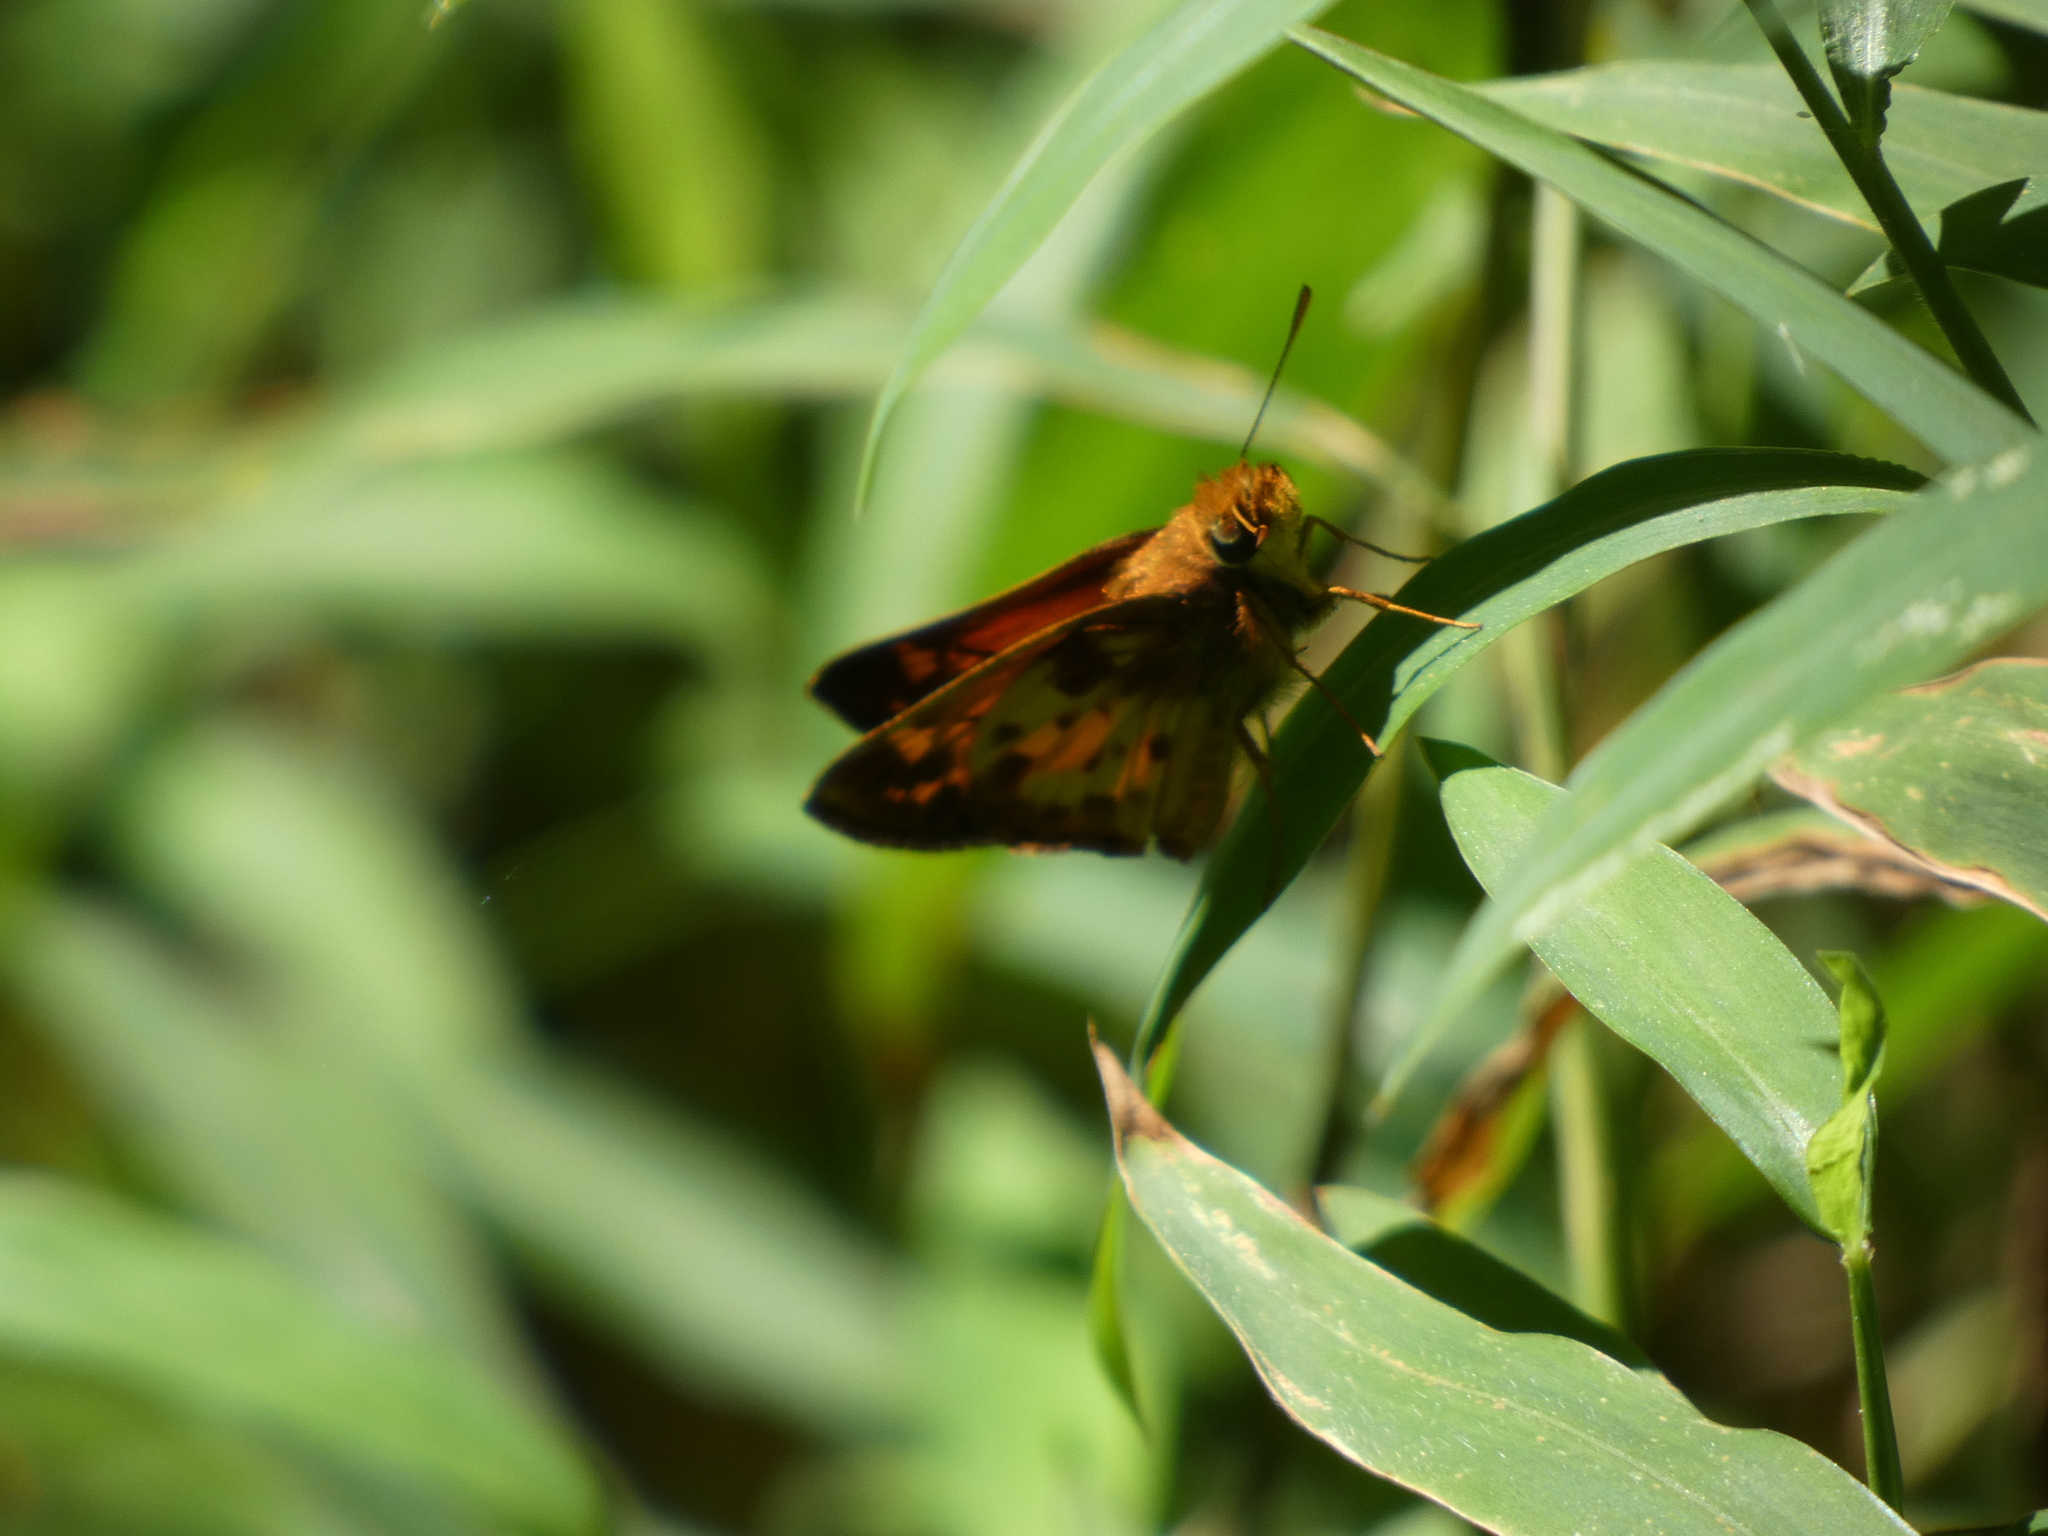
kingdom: Animalia
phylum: Arthropoda
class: Insecta
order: Lepidoptera
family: Hesperiidae
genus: Lon
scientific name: Lon zabulon
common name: Zabulon skipper
